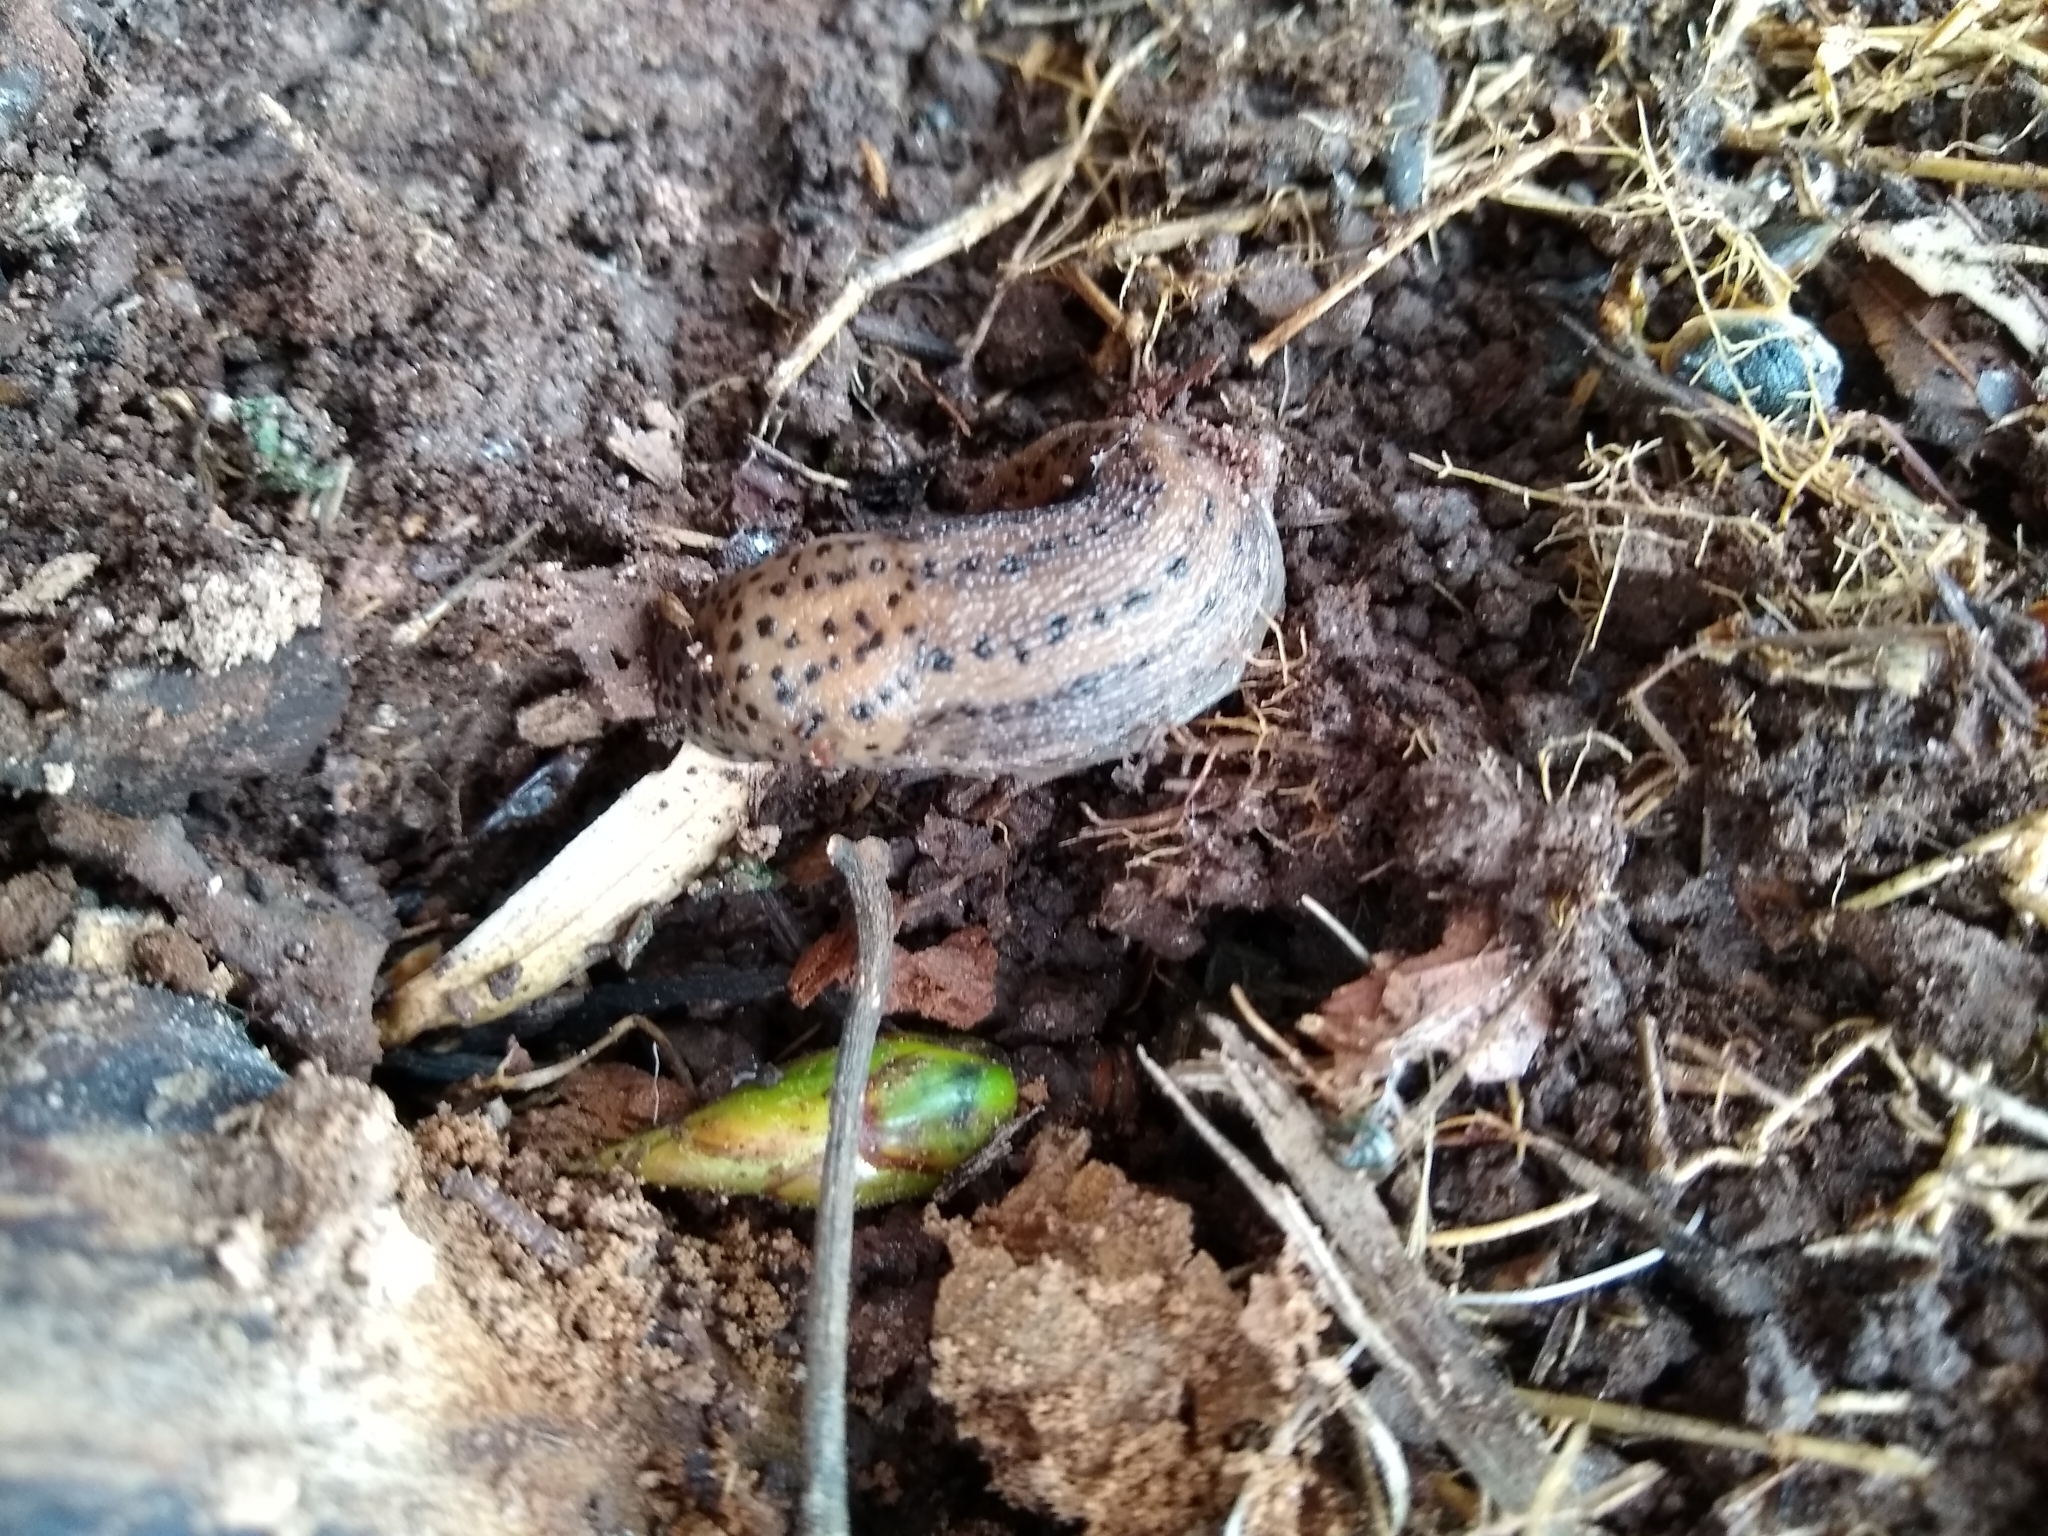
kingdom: Animalia
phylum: Mollusca
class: Gastropoda
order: Stylommatophora
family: Limacidae
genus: Limax
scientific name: Limax maximus
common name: Great grey slug
